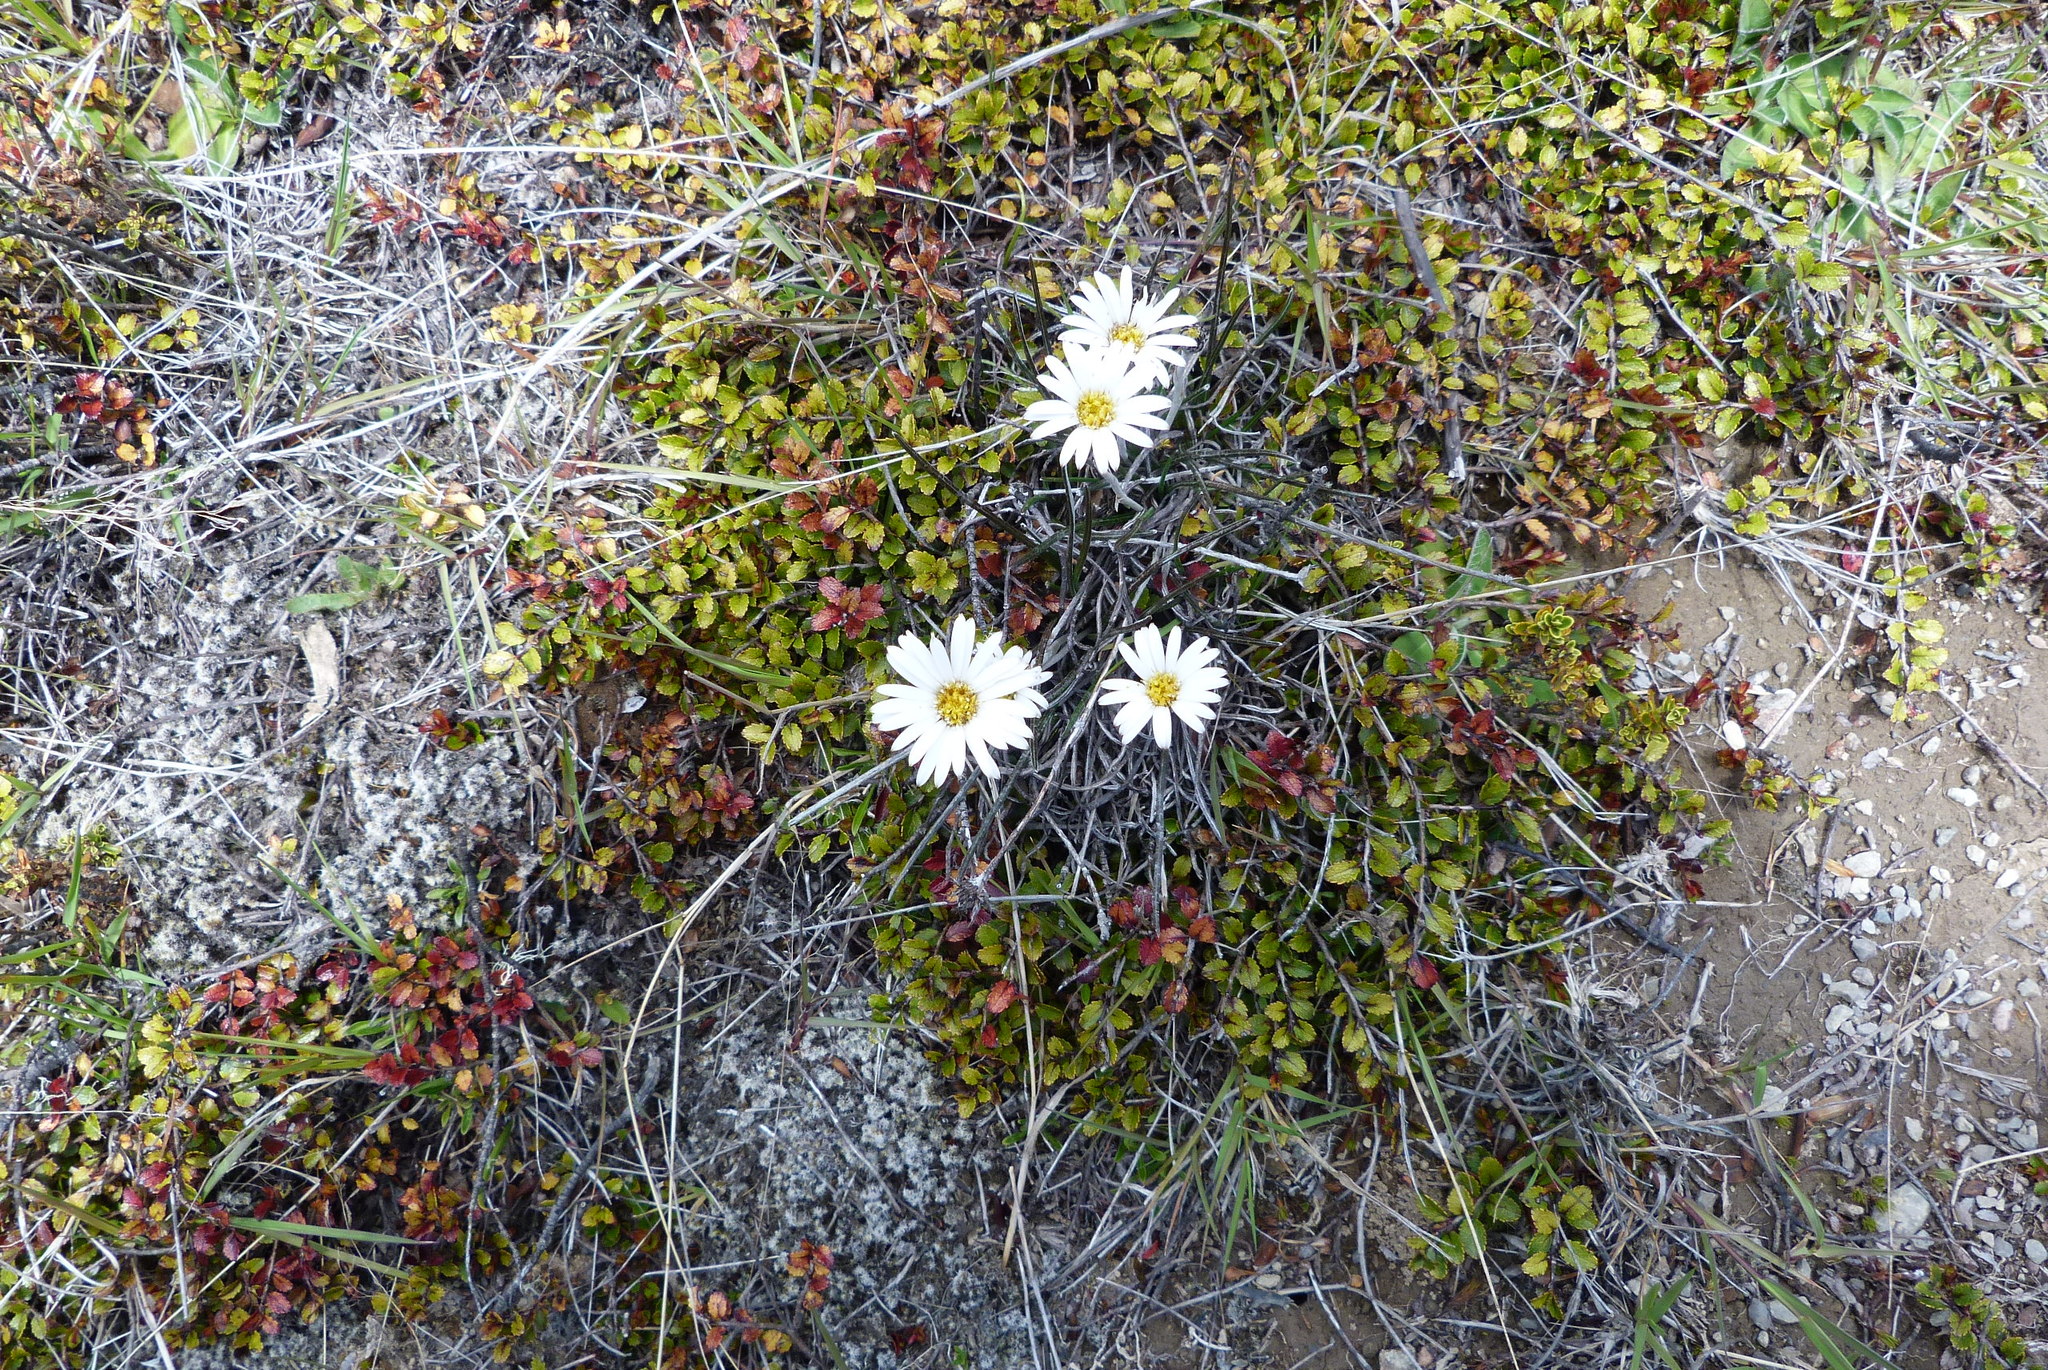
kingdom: Plantae
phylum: Tracheophyta
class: Magnoliopsida
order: Asterales
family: Asteraceae
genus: Celmisia
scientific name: Celmisia gracilenta
